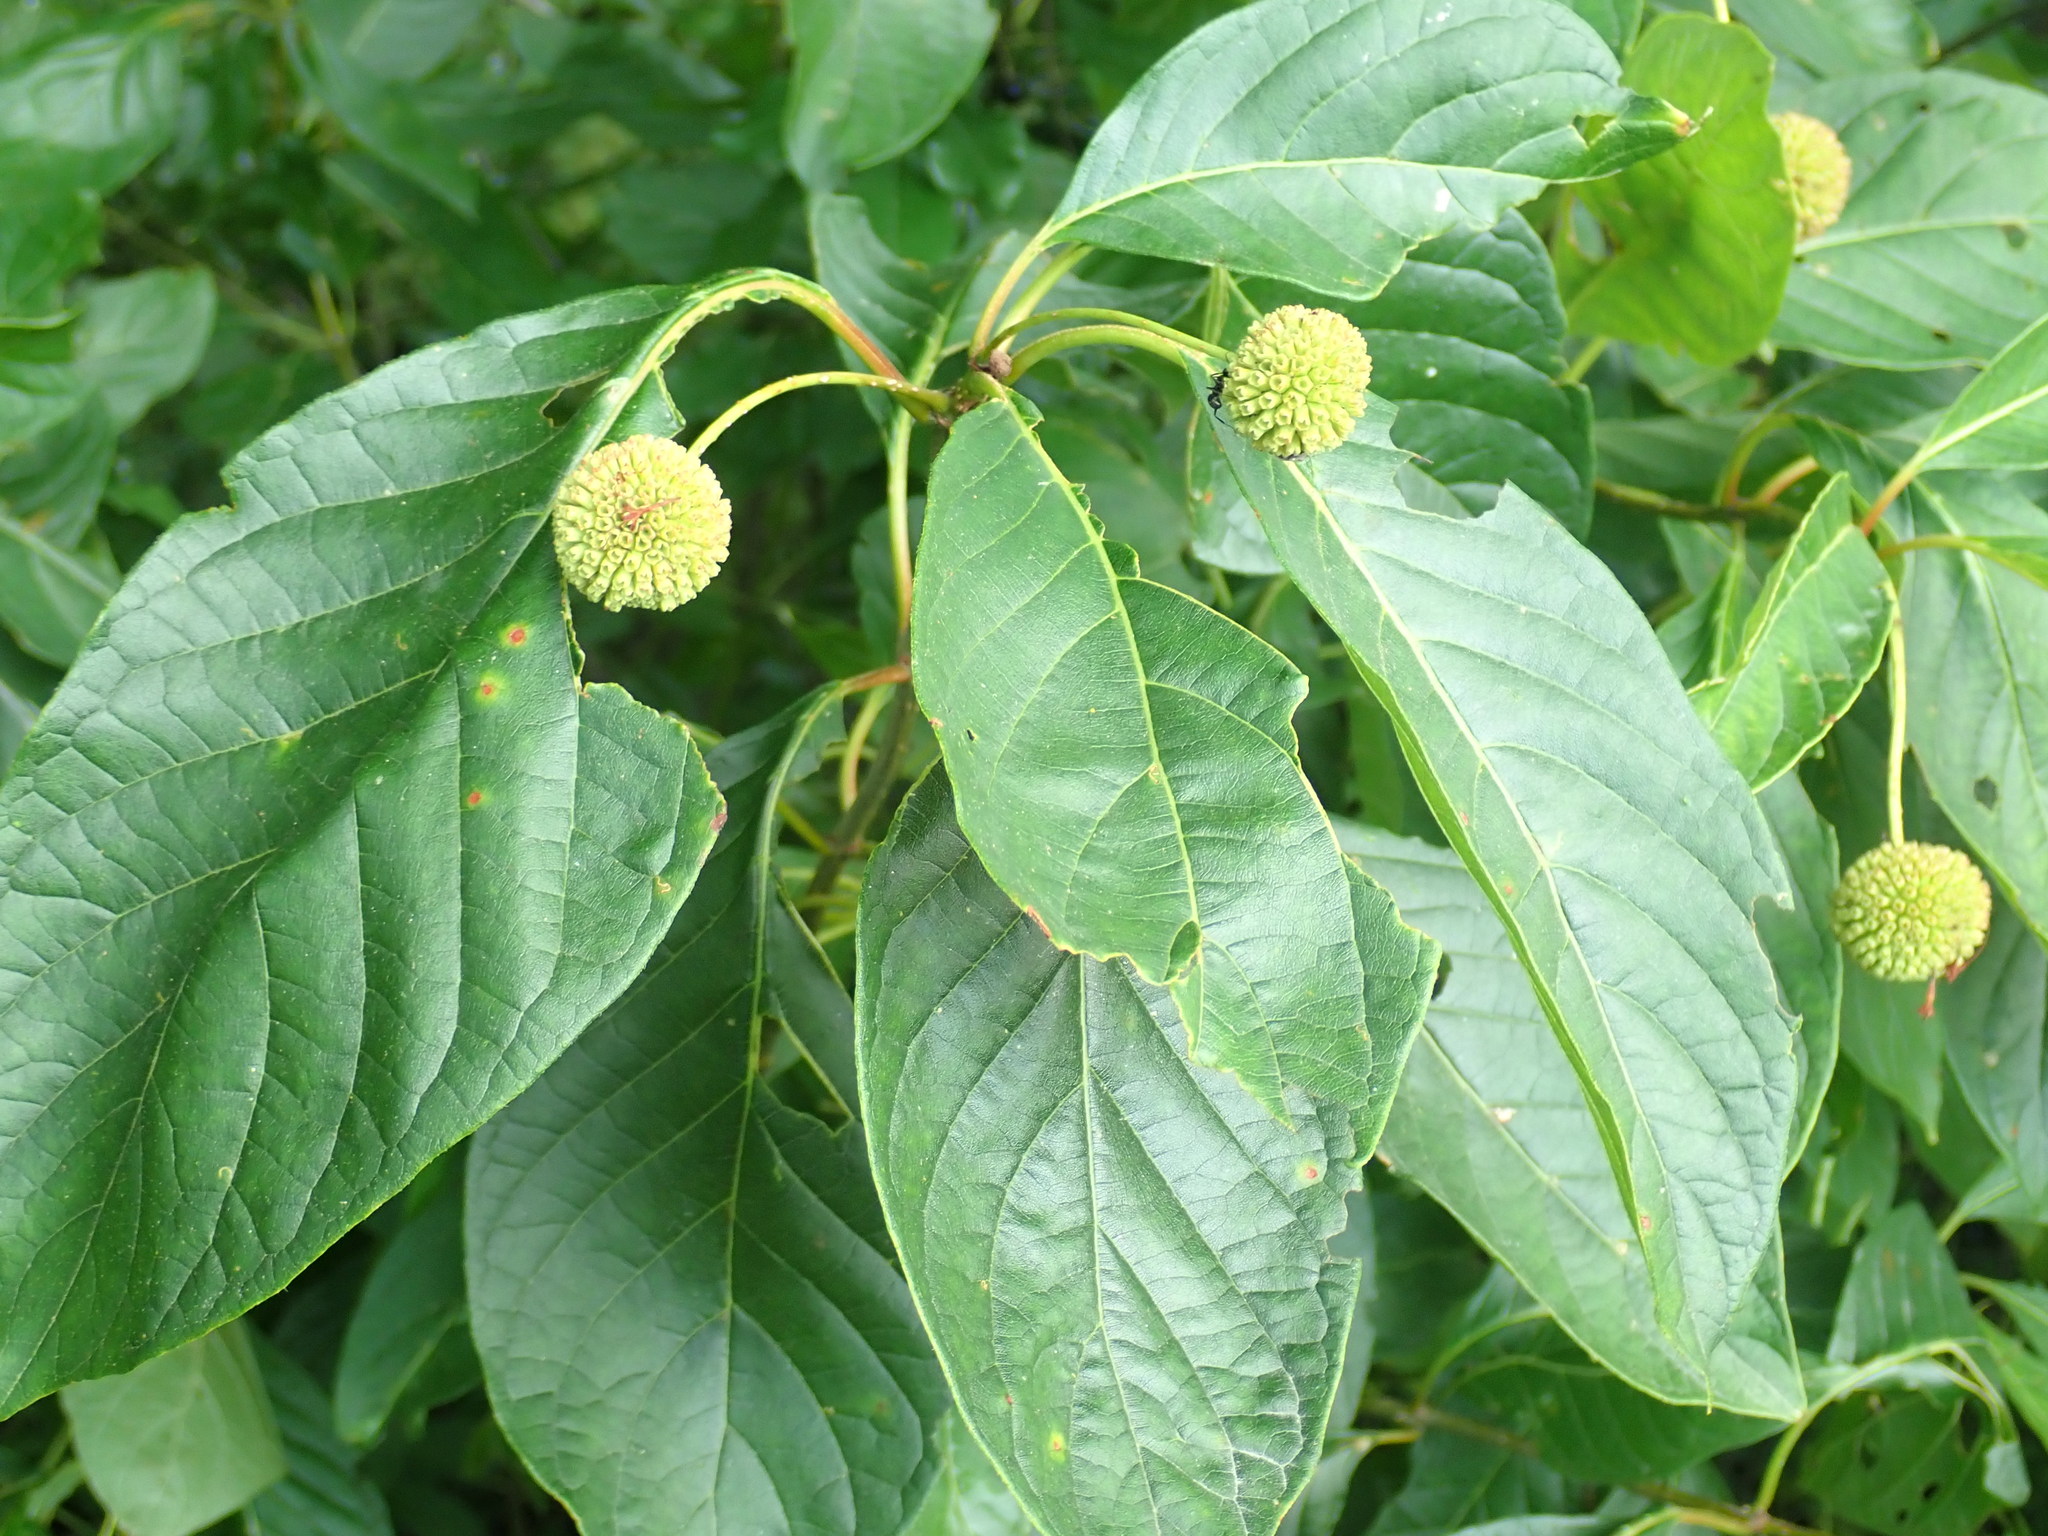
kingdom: Plantae
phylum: Tracheophyta
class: Magnoliopsida
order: Gentianales
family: Rubiaceae
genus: Cephalanthus
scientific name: Cephalanthus occidentalis
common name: Button-willow
